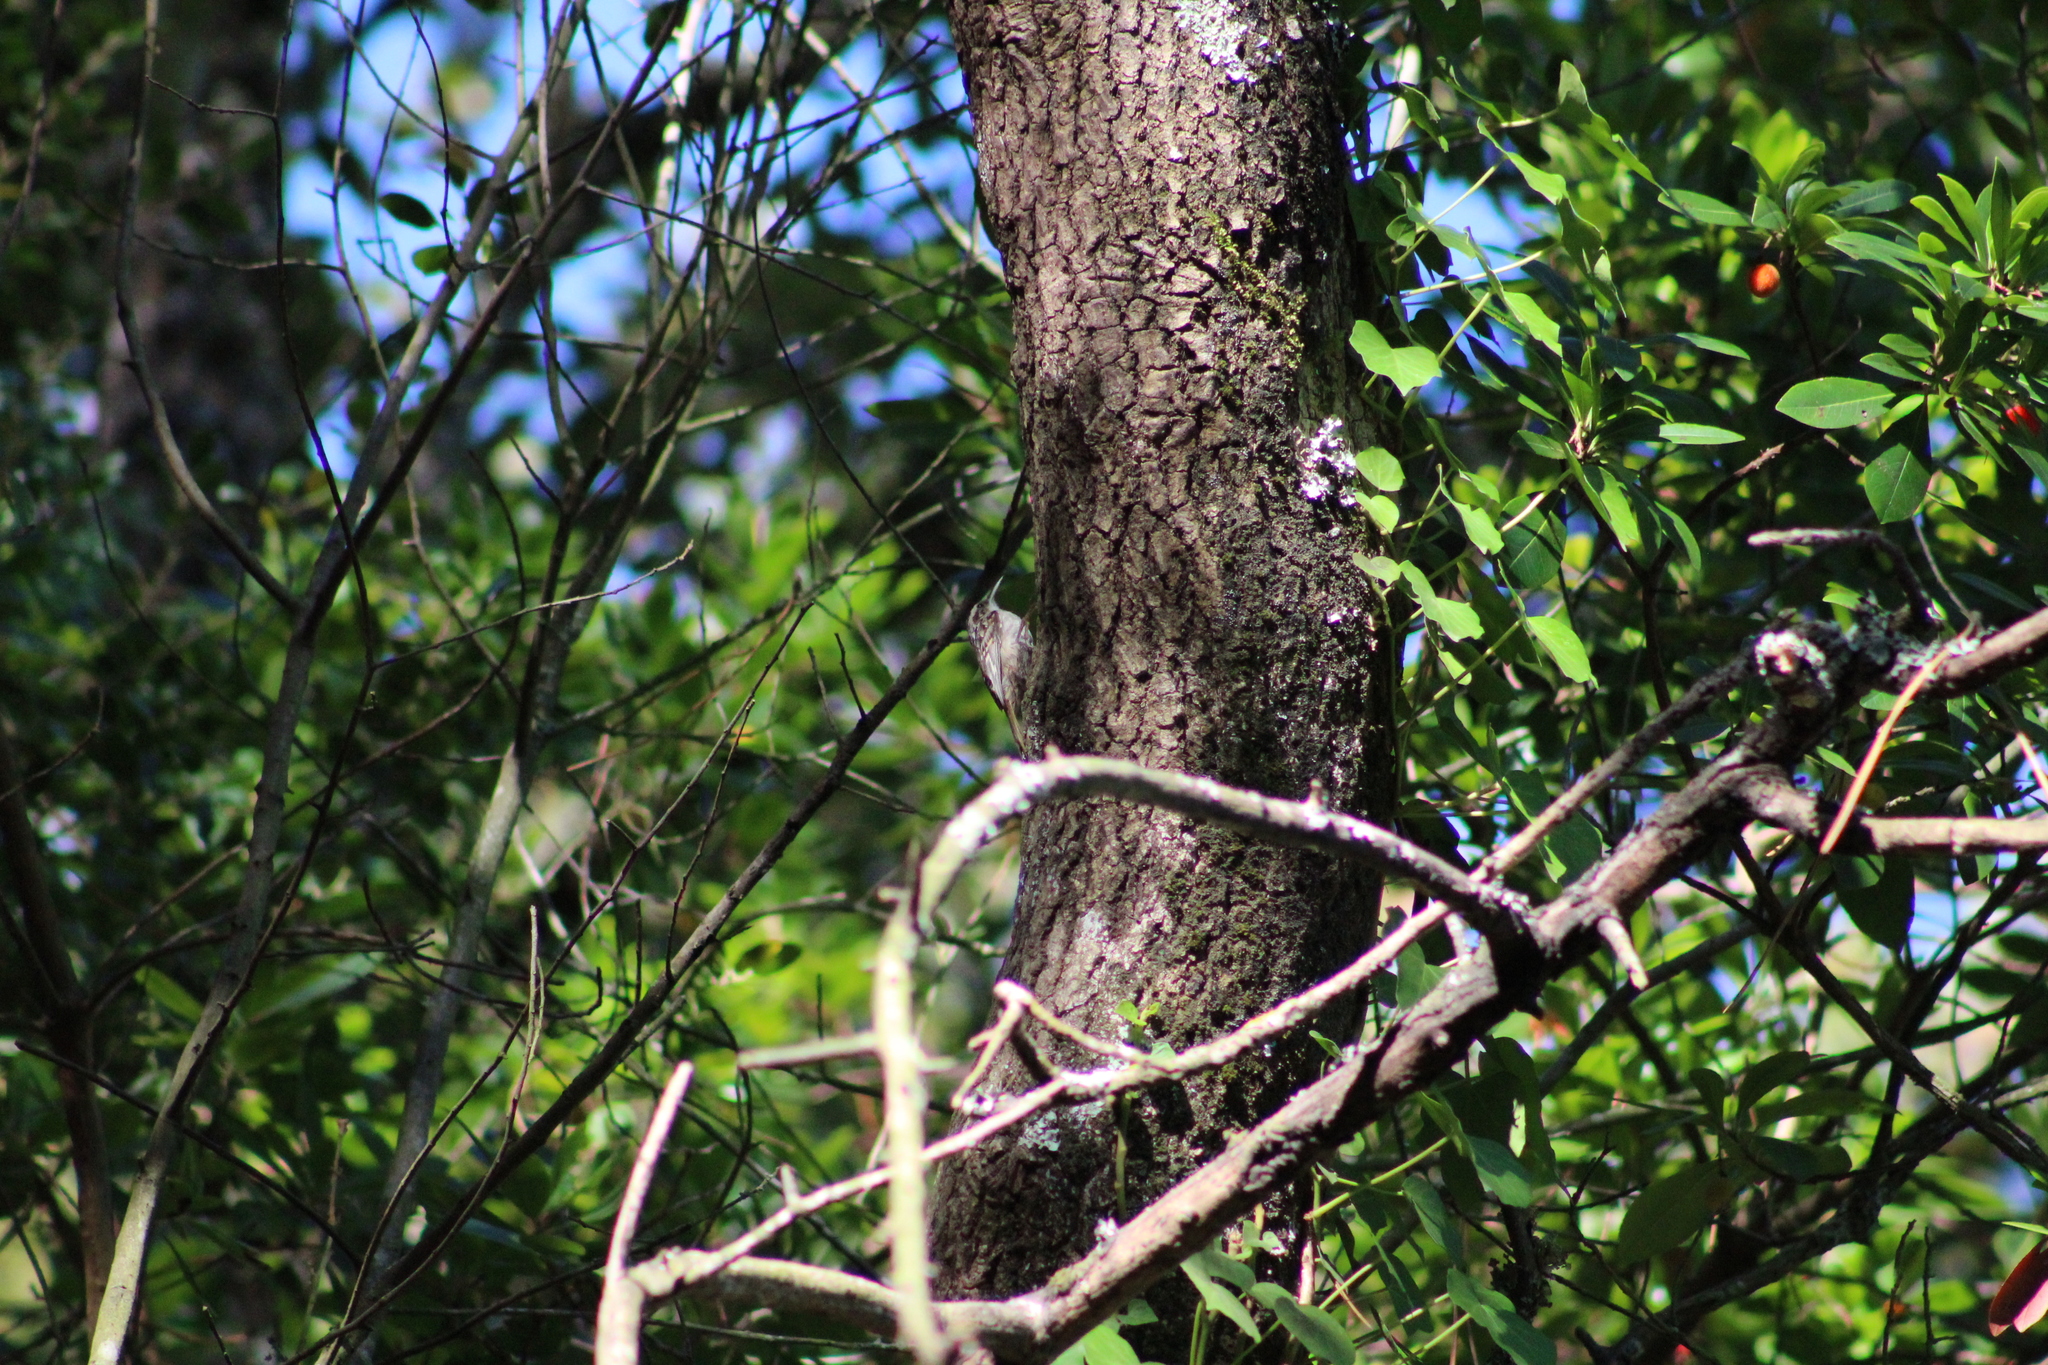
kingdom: Animalia
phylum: Chordata
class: Aves
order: Passeriformes
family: Certhiidae
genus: Certhia
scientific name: Certhia brachydactyla
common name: Short-toed treecreeper
